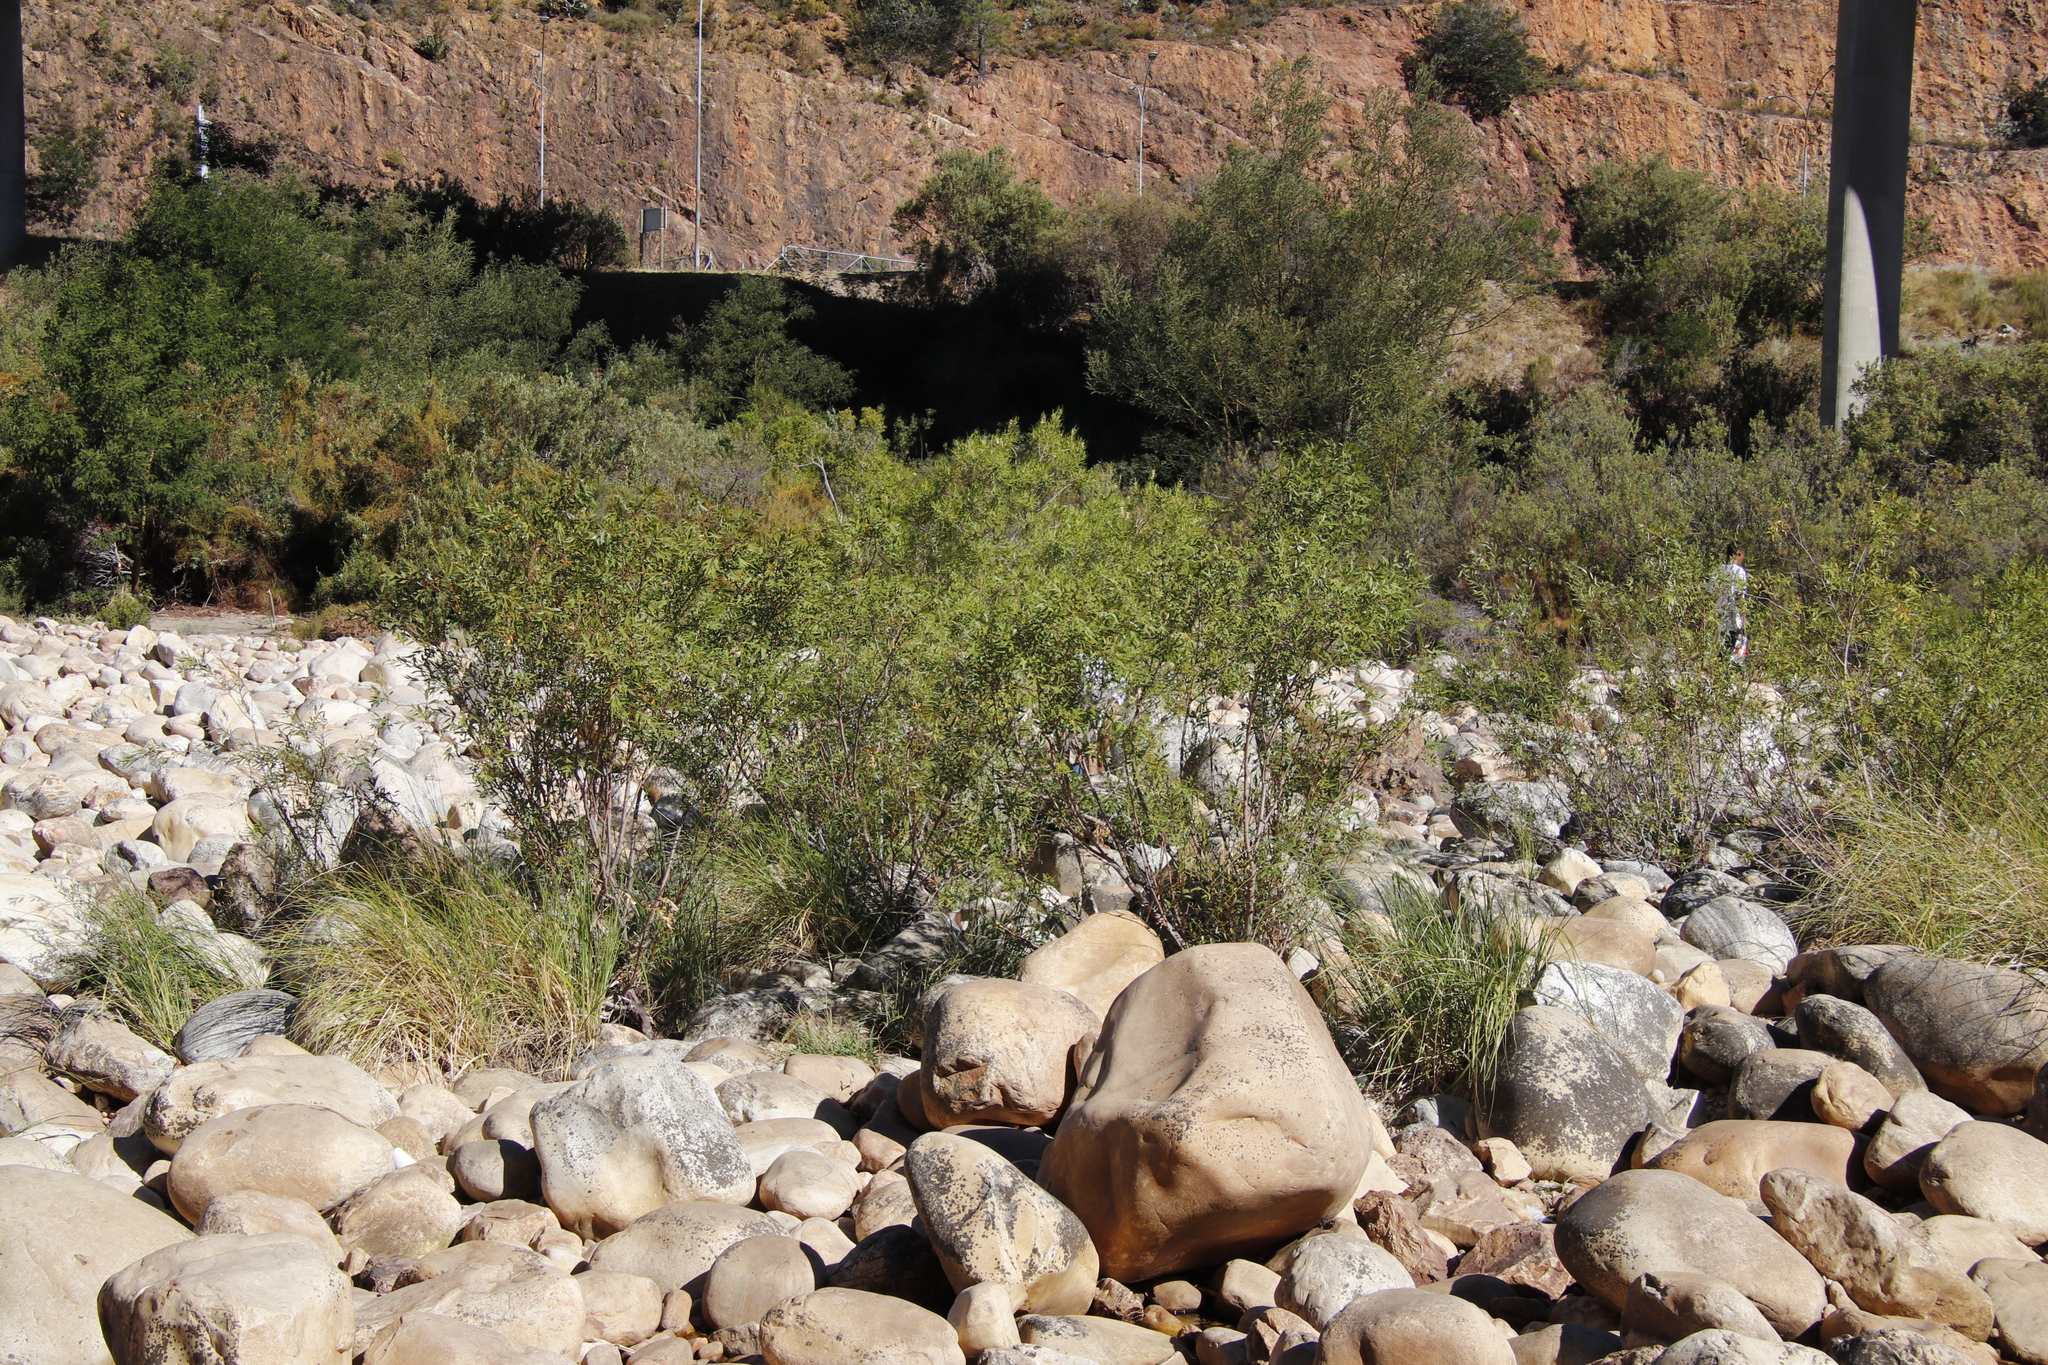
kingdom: Plantae
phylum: Tracheophyta
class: Magnoliopsida
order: Malpighiales
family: Salicaceae
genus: Salix
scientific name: Salix mucronata
